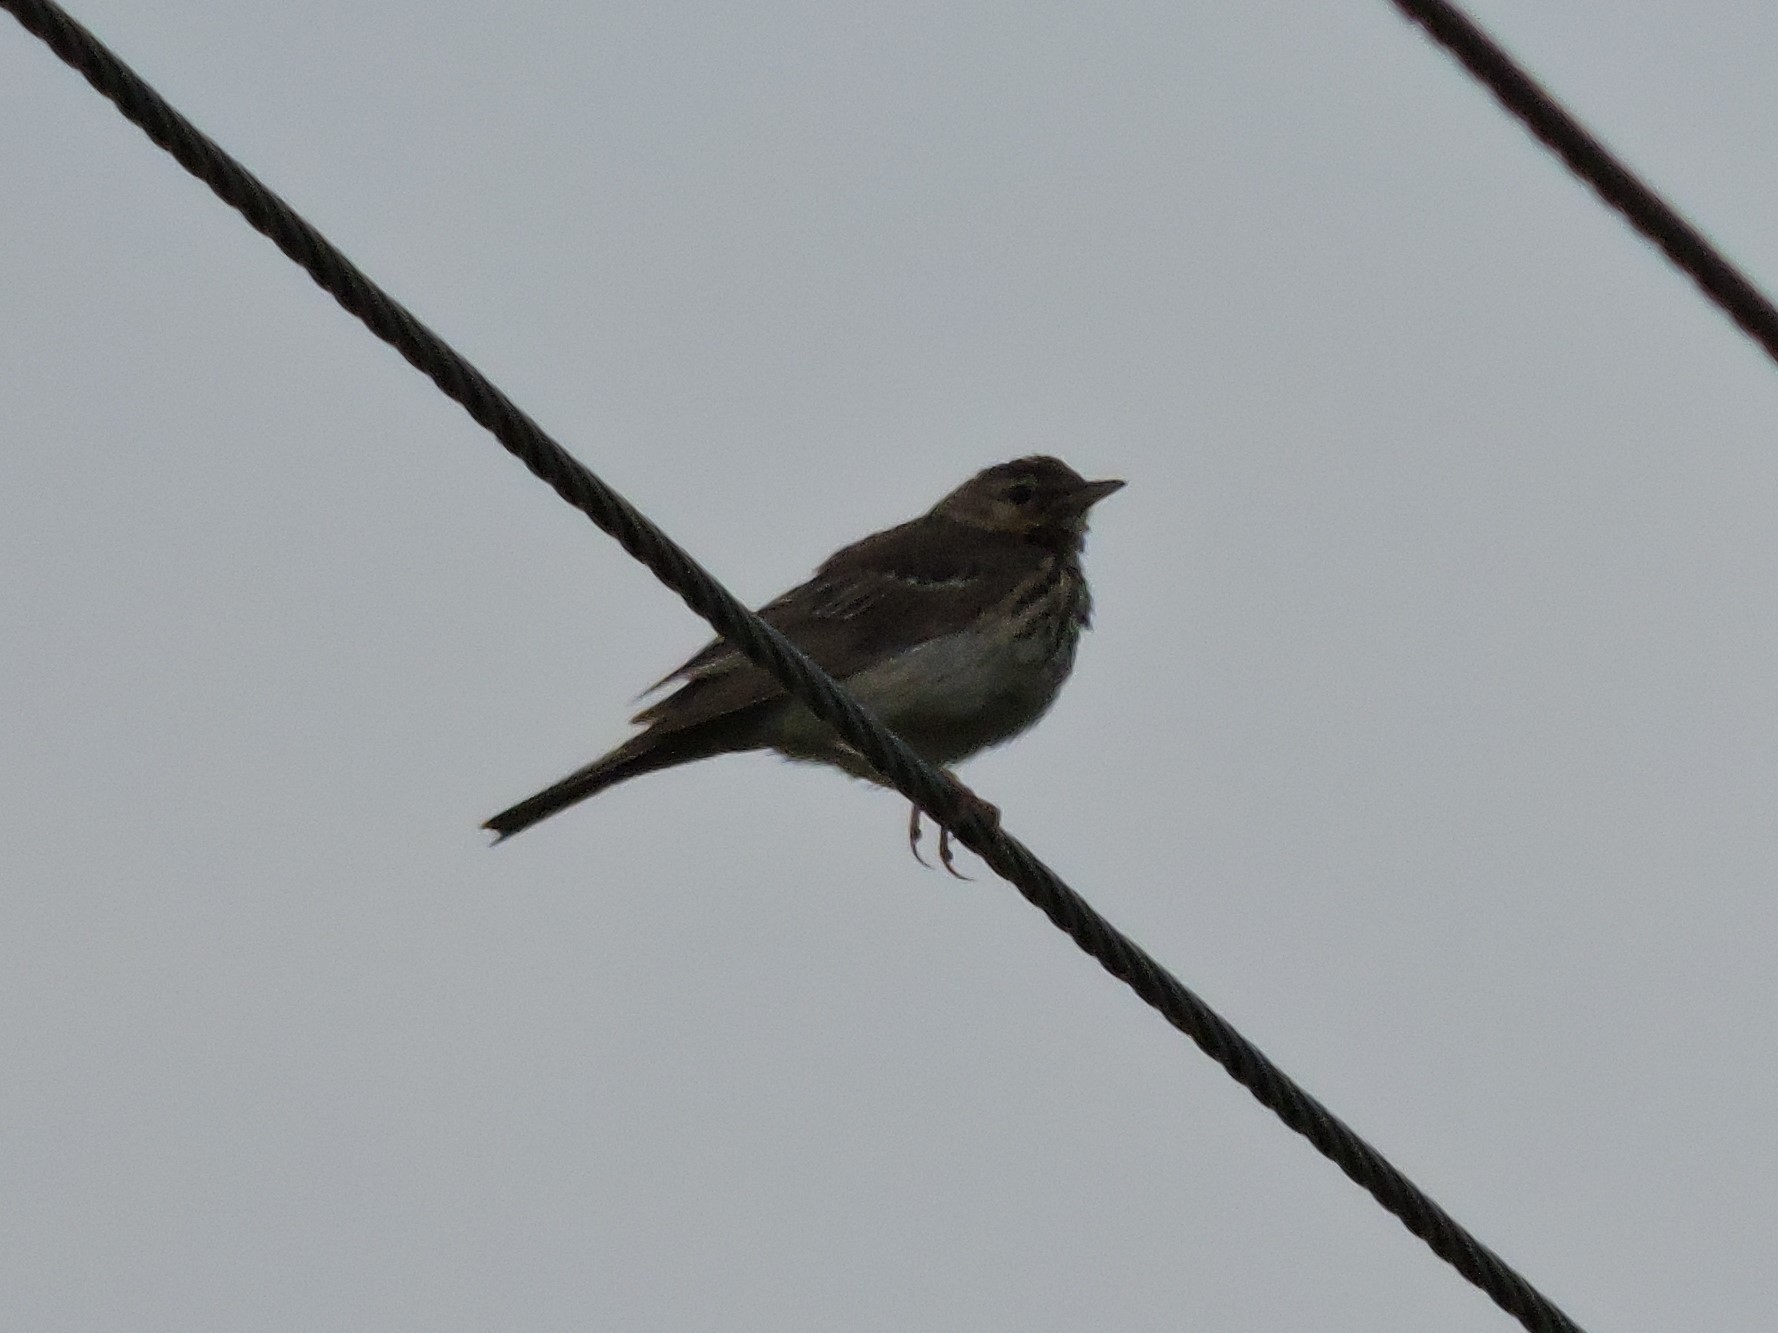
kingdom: Animalia
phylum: Chordata
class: Aves
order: Passeriformes
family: Motacillidae
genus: Anthus
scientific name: Anthus trivialis
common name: Tree pipit
